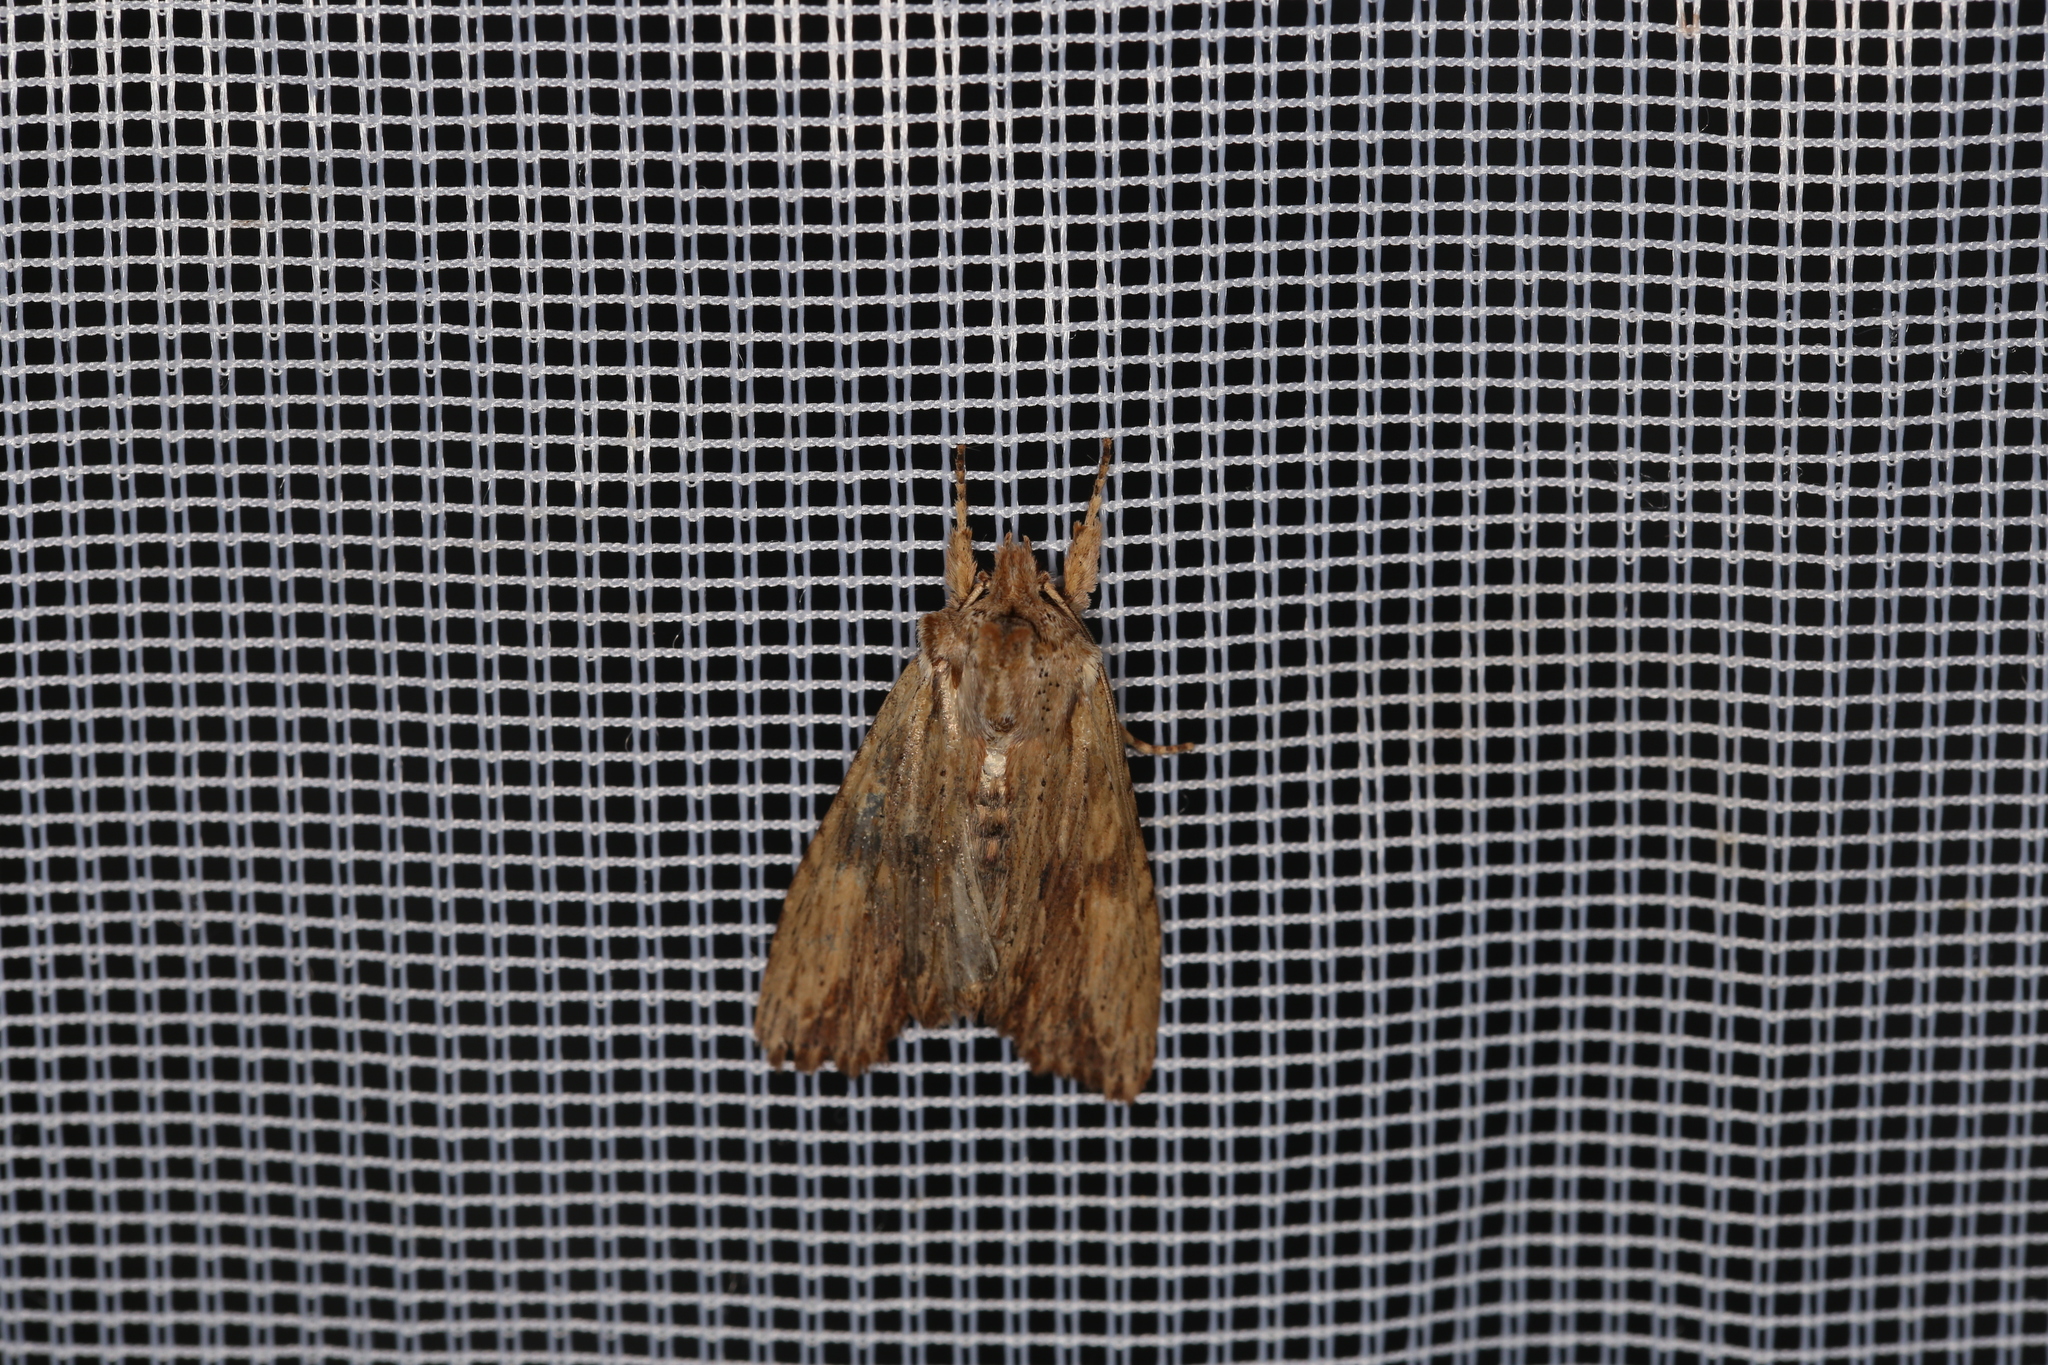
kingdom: Animalia
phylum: Arthropoda
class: Insecta
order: Lepidoptera
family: Noctuidae
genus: Lithophane
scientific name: Lithophane socia
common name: Pale pinion
